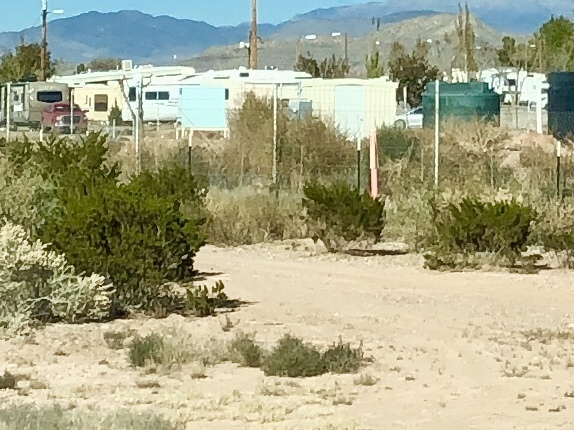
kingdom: Plantae
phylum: Tracheophyta
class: Magnoliopsida
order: Zygophyllales
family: Zygophyllaceae
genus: Larrea
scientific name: Larrea tridentata
